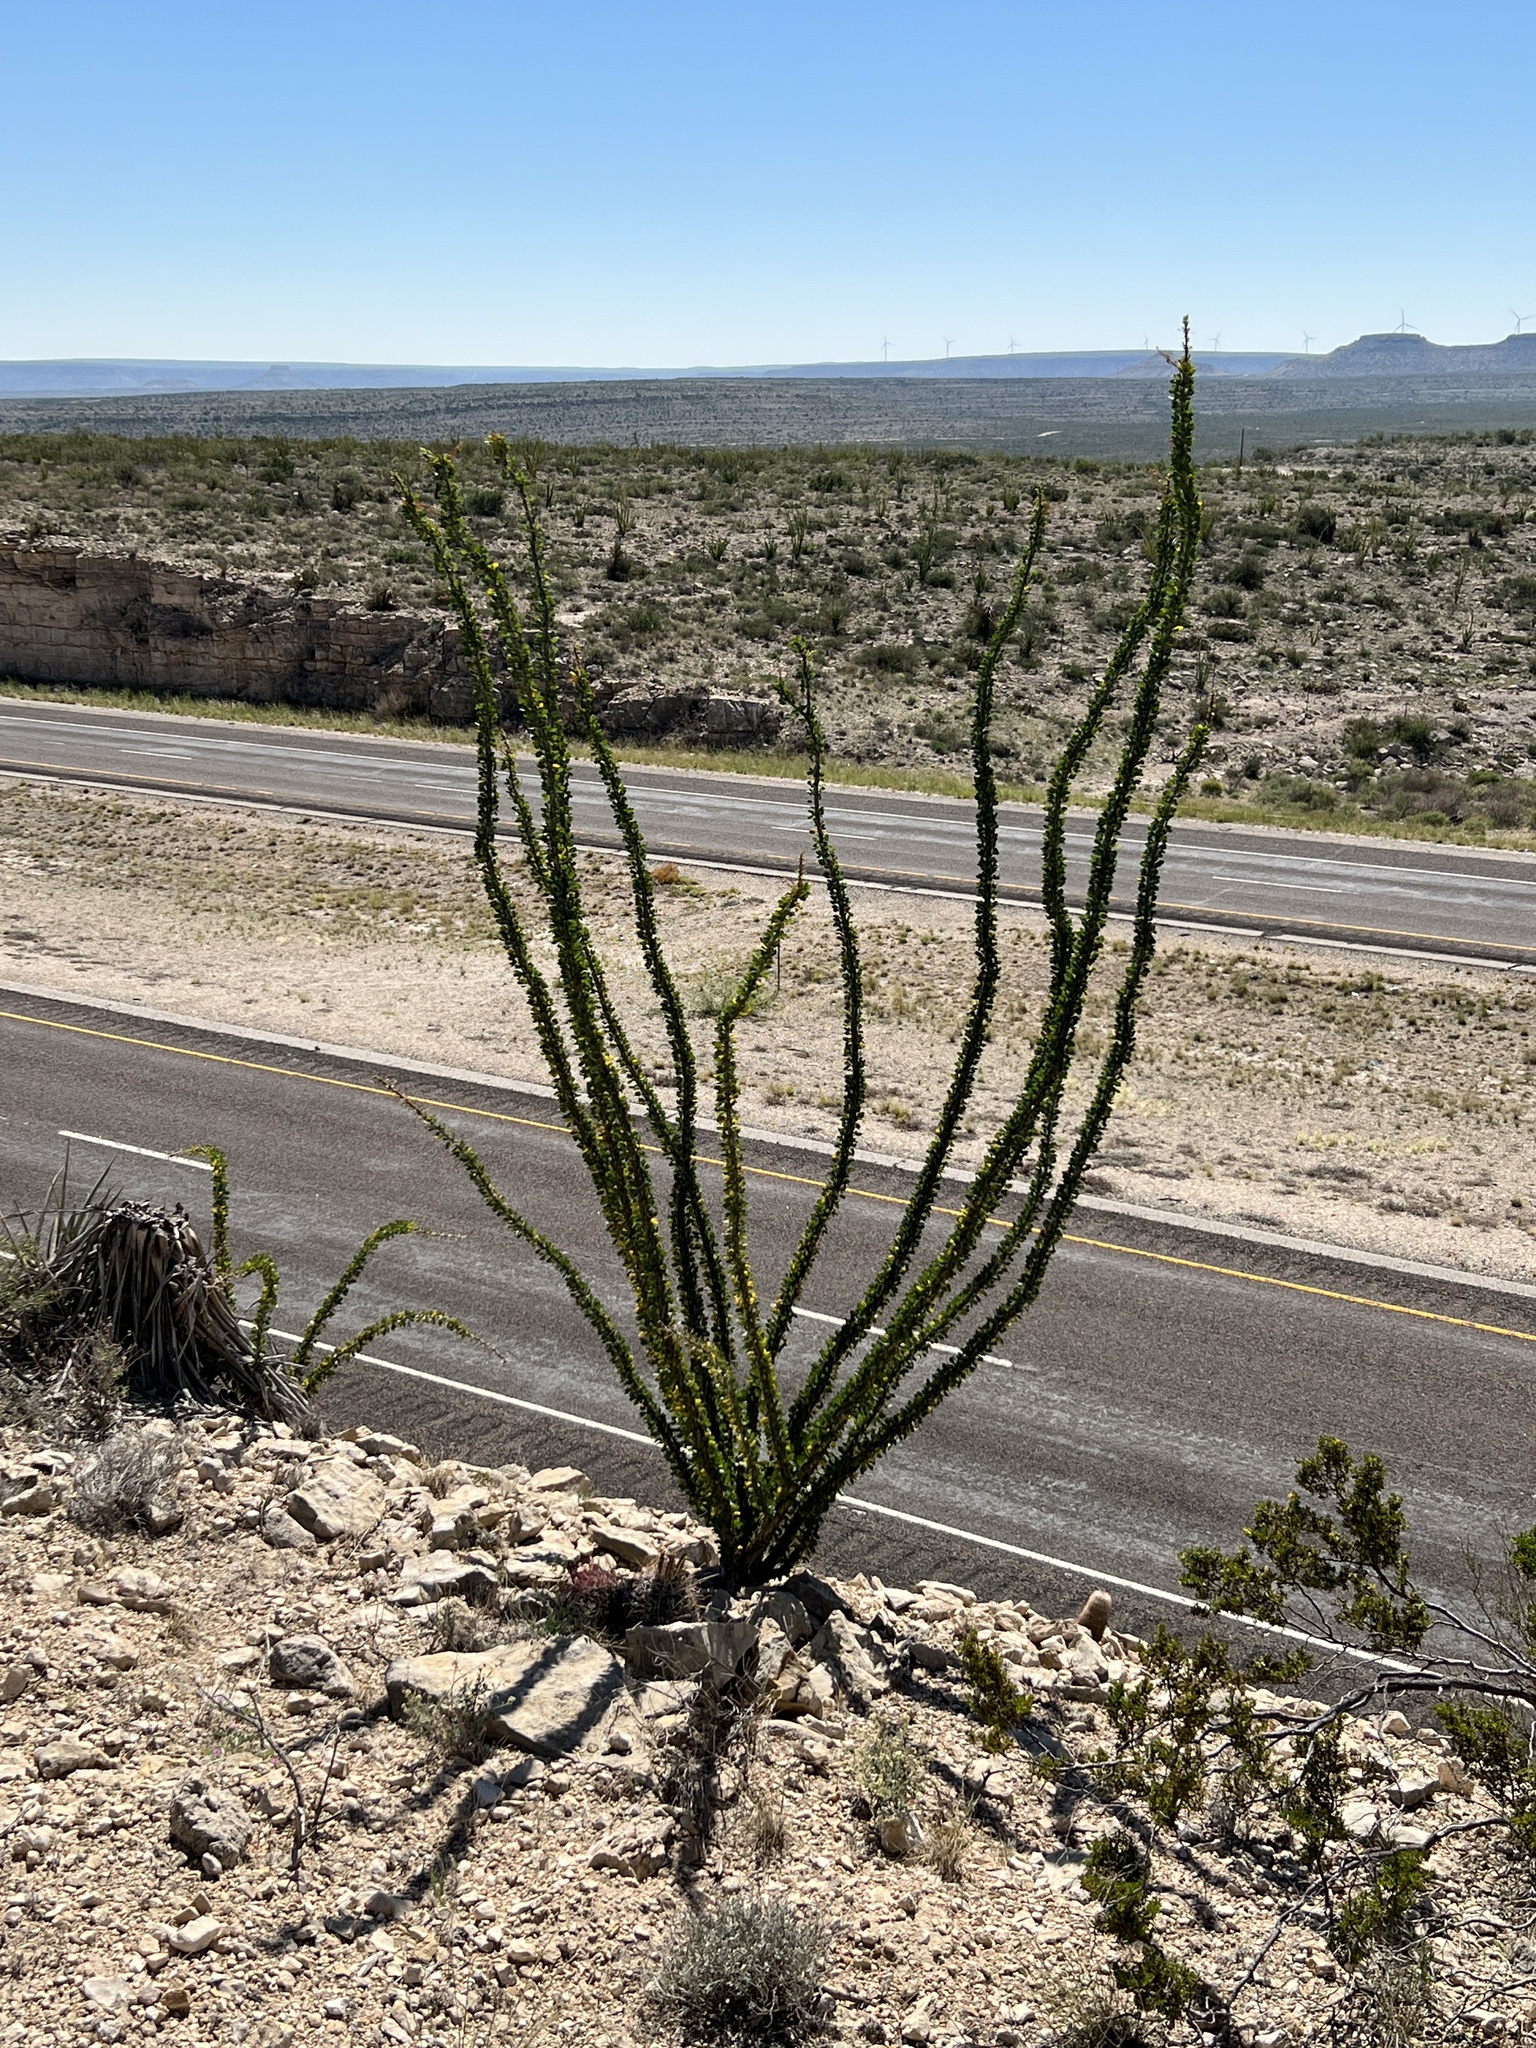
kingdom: Plantae
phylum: Tracheophyta
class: Magnoliopsida
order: Ericales
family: Fouquieriaceae
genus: Fouquieria
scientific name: Fouquieria splendens
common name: Vine-cactus
